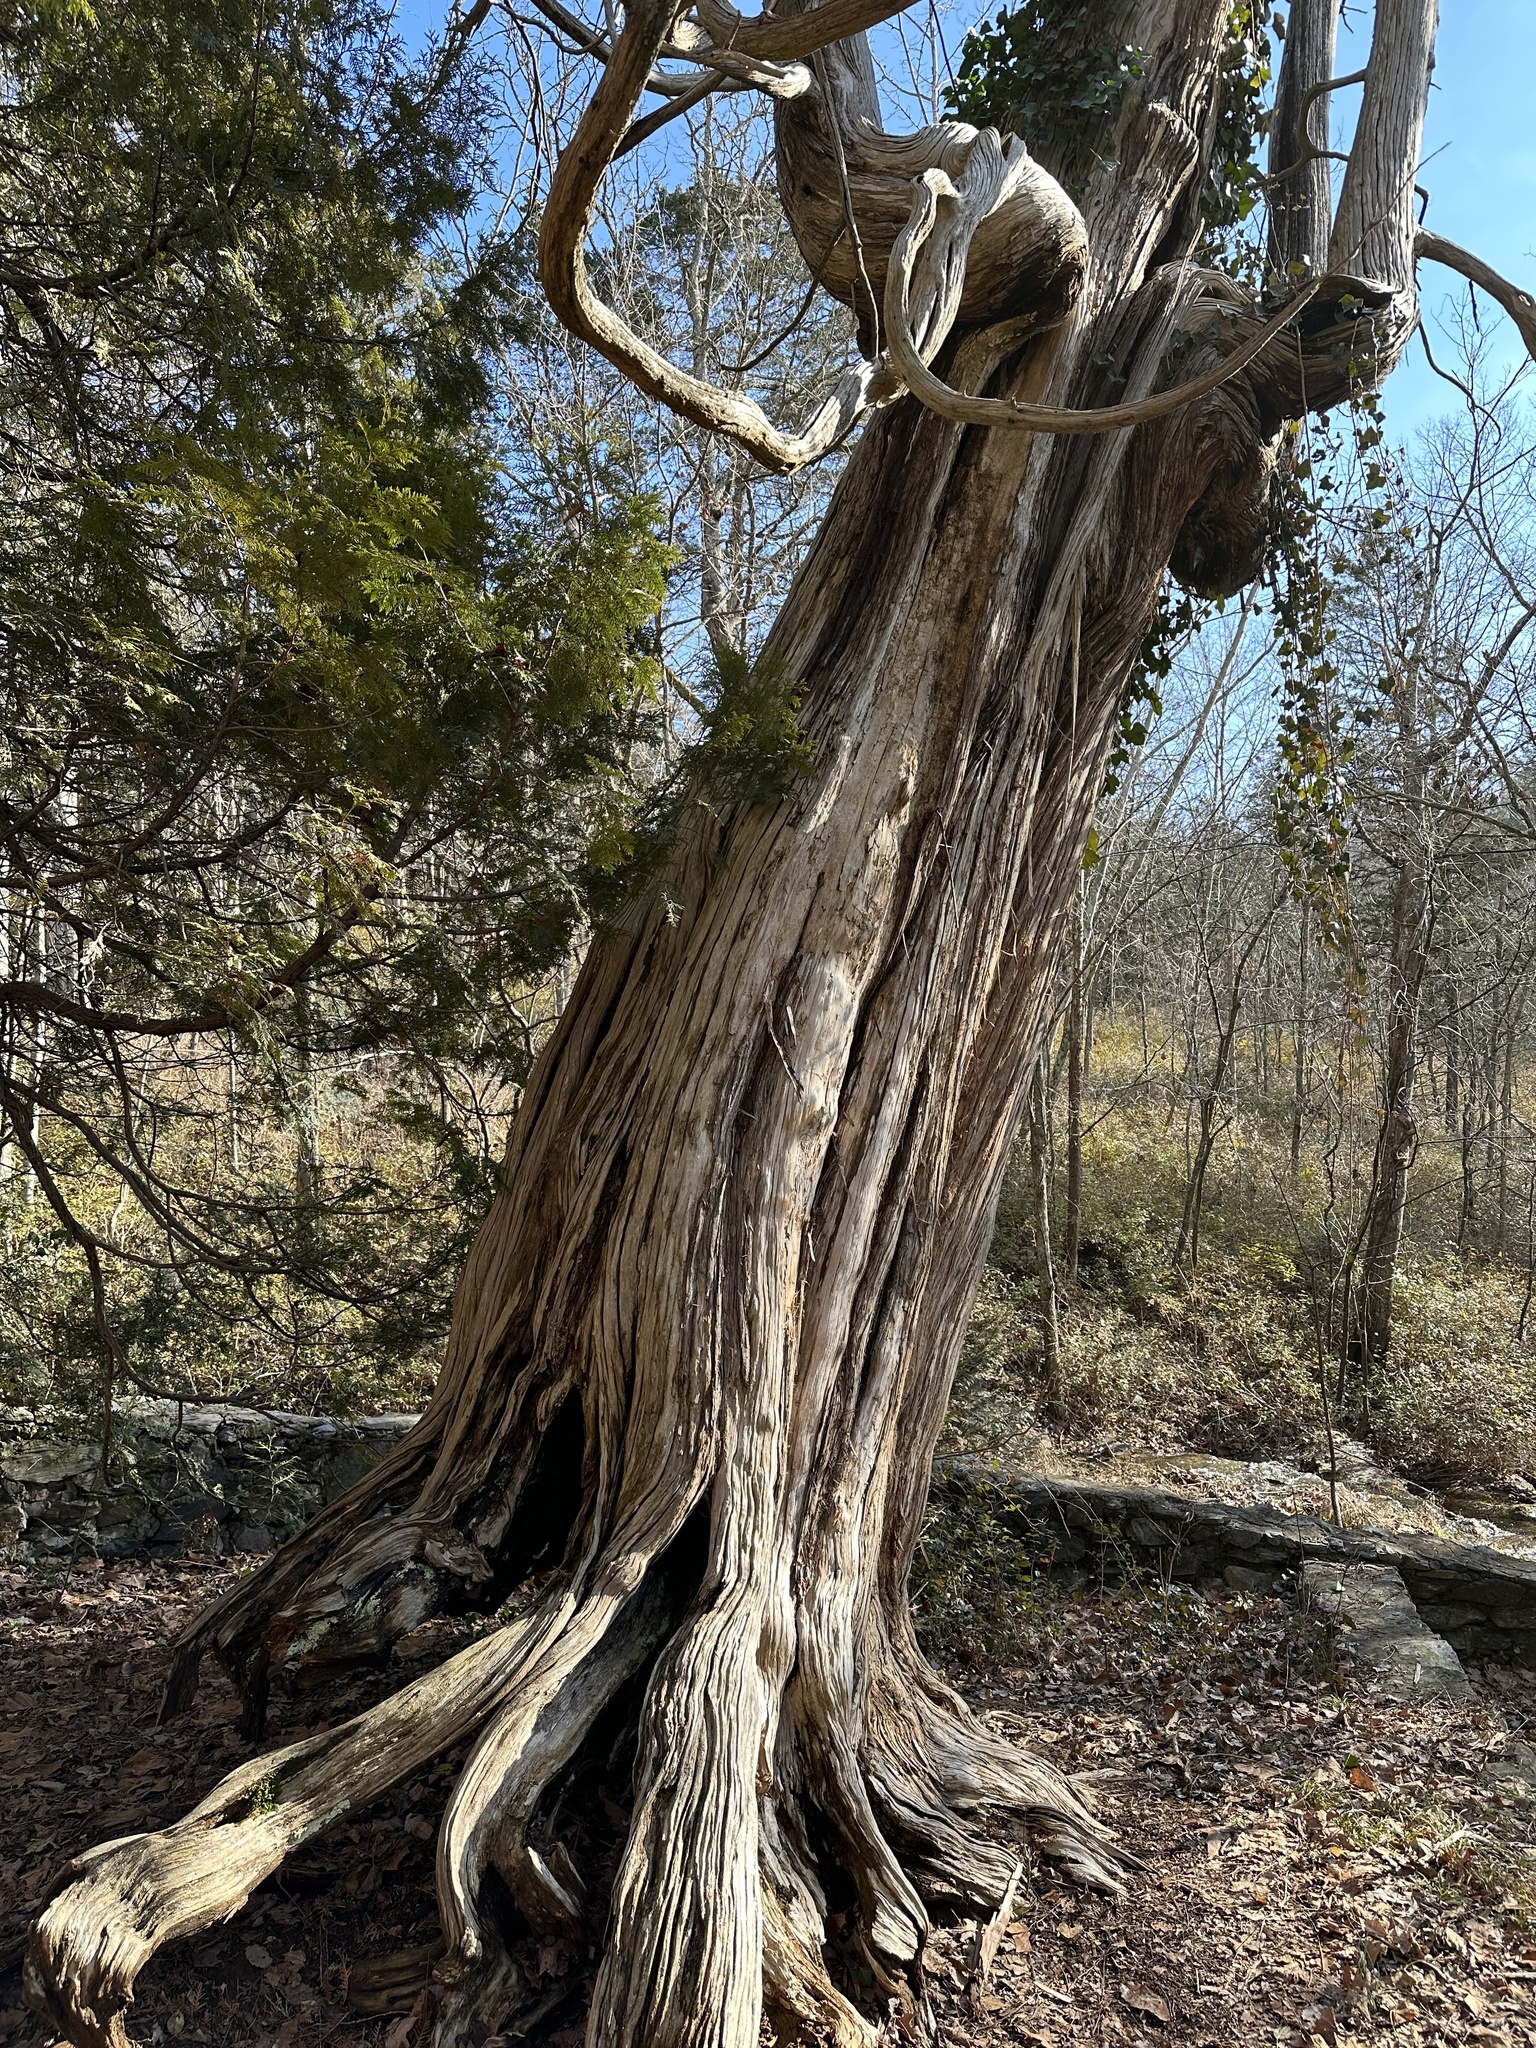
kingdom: Plantae
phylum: Tracheophyta
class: Pinopsida
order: Pinales
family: Cupressaceae
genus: Thuja
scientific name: Thuja occidentalis
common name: Northern white-cedar
